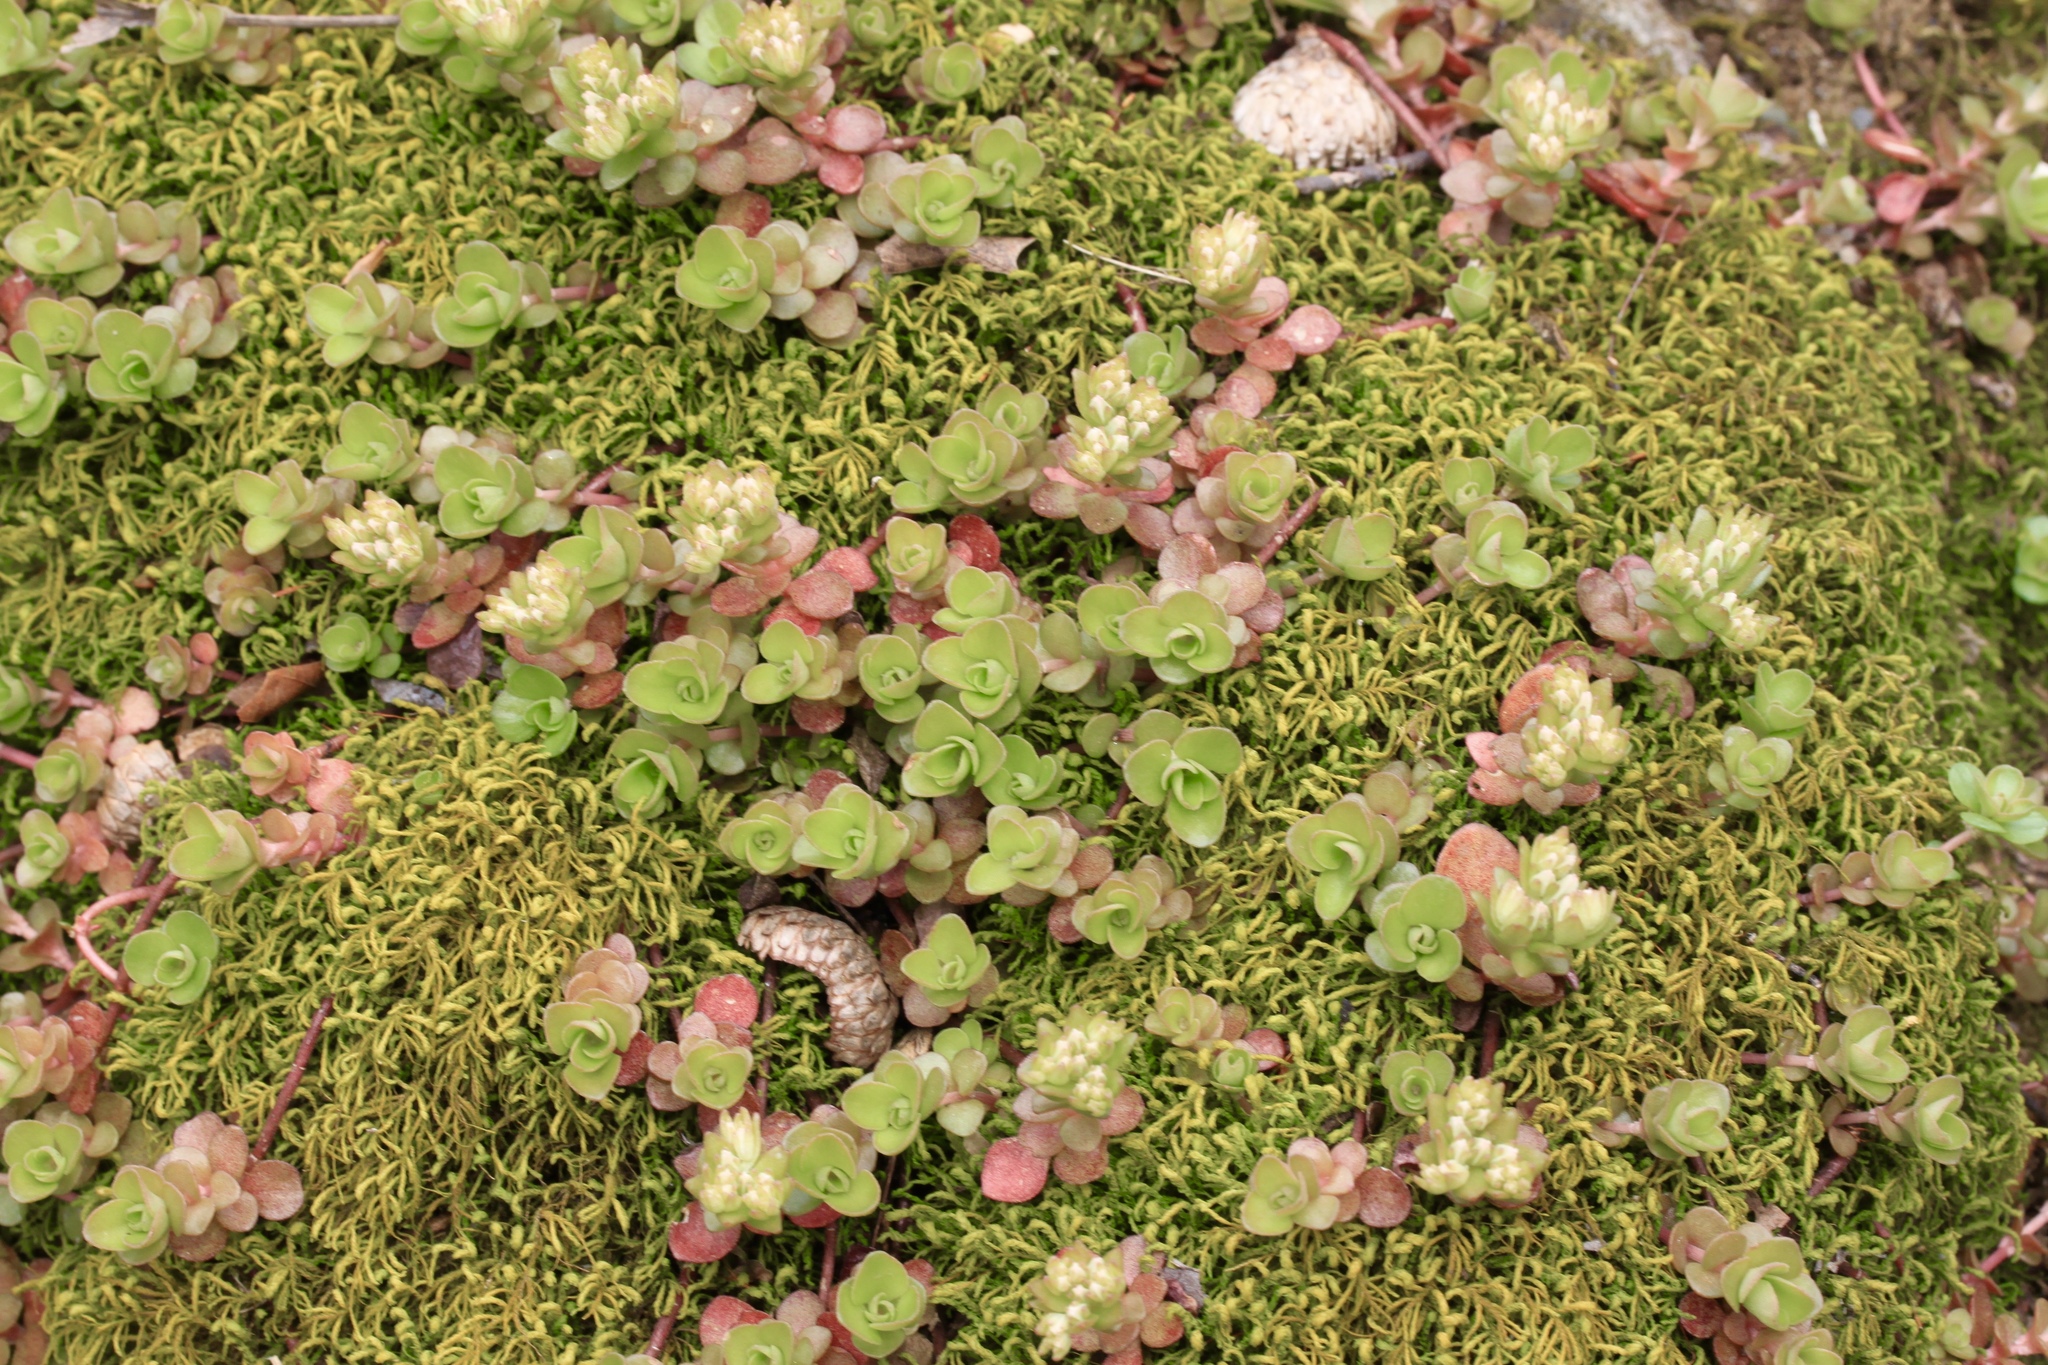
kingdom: Plantae
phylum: Tracheophyta
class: Magnoliopsida
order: Saxifragales
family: Crassulaceae
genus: Sedum
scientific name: Sedum ternatum
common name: Wild stonecrop
